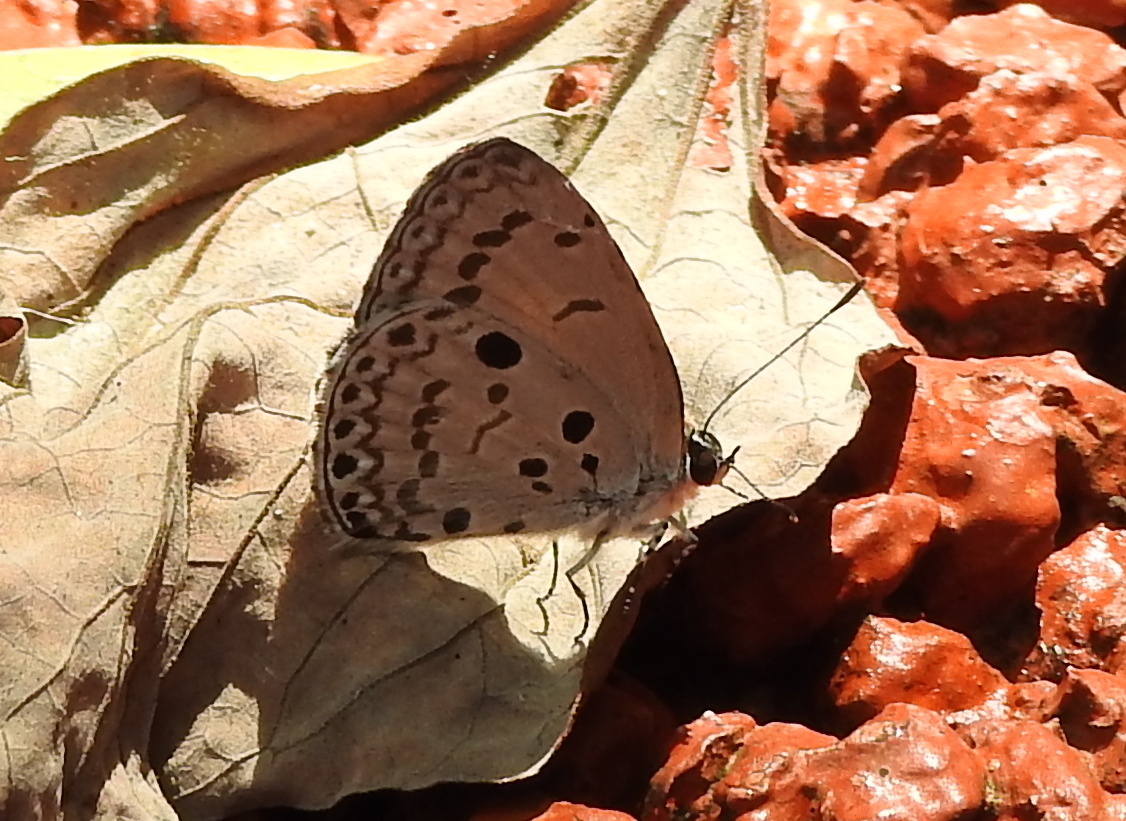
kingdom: Animalia
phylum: Arthropoda
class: Insecta
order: Lepidoptera
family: Lycaenidae
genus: Acytolepis
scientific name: Acytolepis puspa
